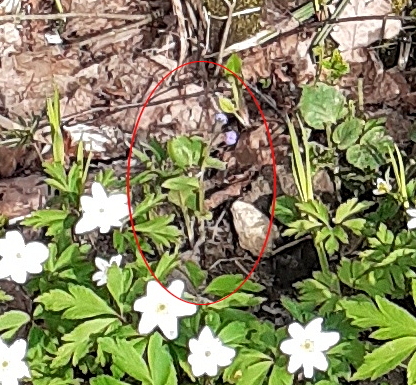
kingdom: Plantae
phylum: Tracheophyta
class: Magnoliopsida
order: Boraginales
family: Boraginaceae
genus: Pulmonaria
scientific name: Pulmonaria obscura
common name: Suffolk lungwort
